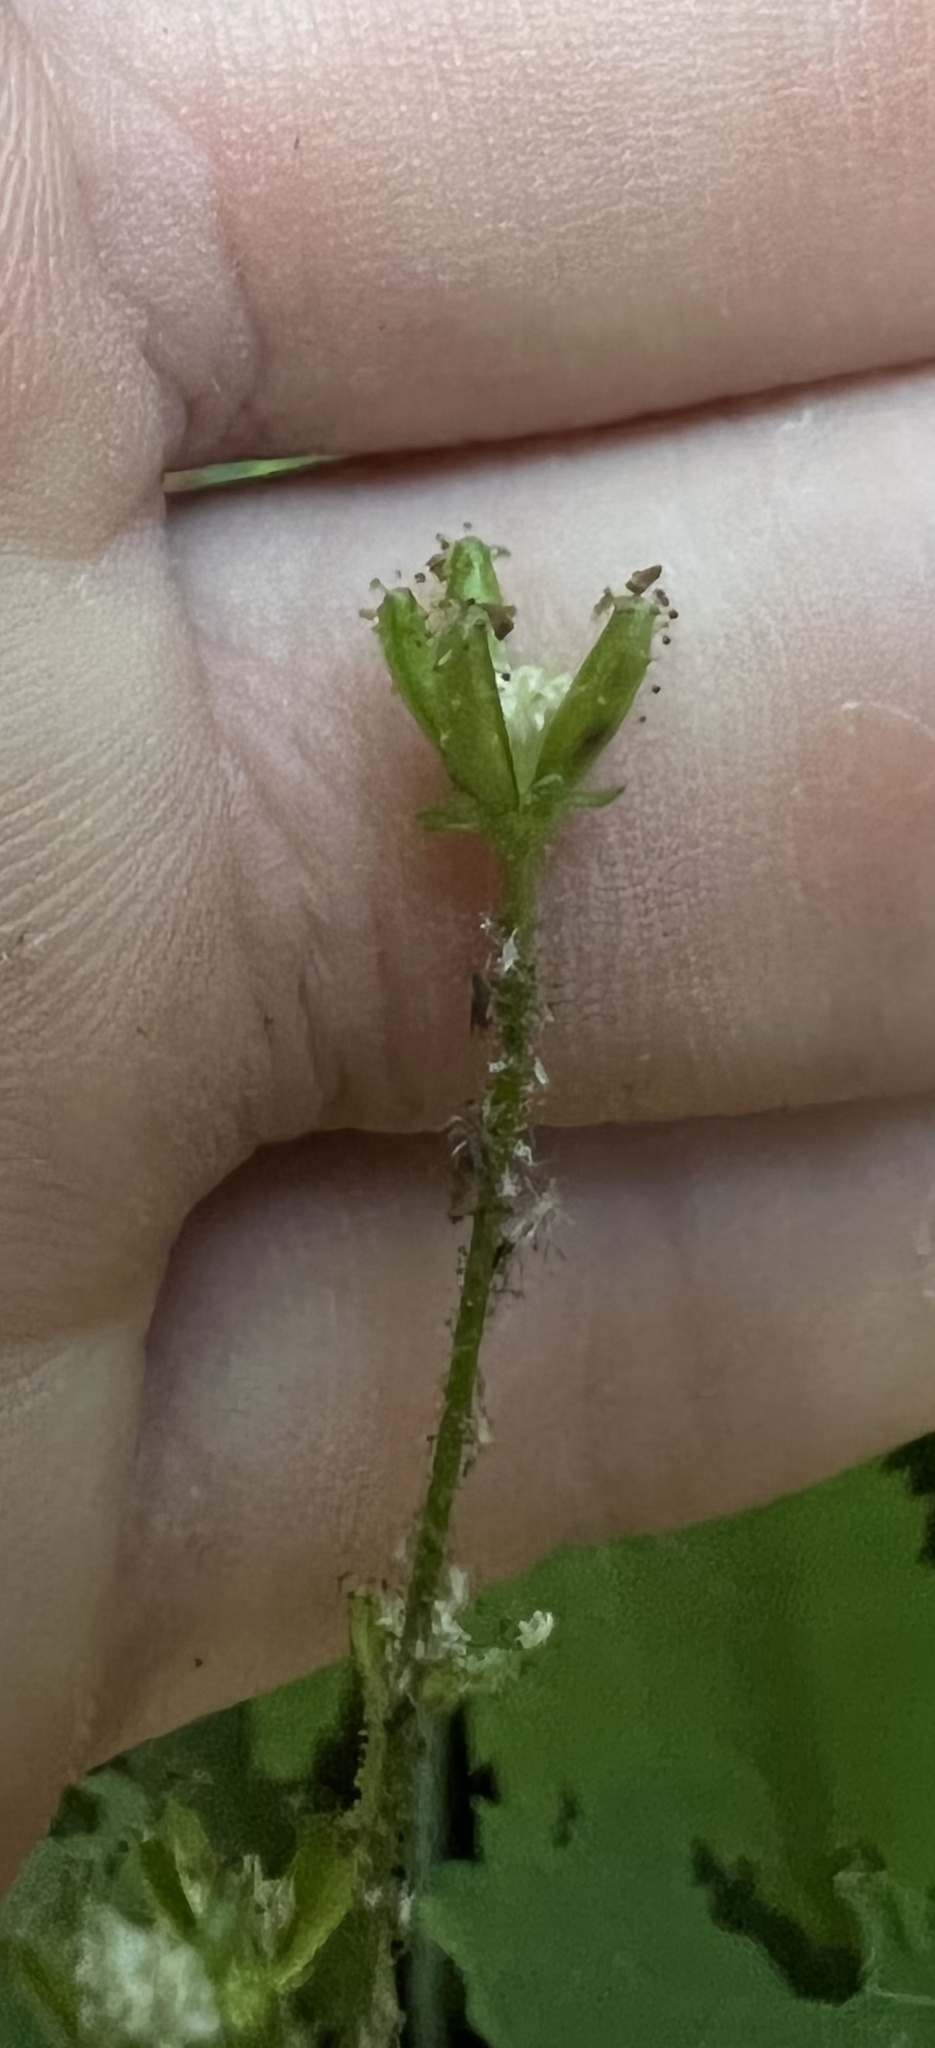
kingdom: Plantae
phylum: Tracheophyta
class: Magnoliopsida
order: Asterales
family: Asteraceae
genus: Adenocaulon
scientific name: Adenocaulon bicolor
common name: Trailplant
